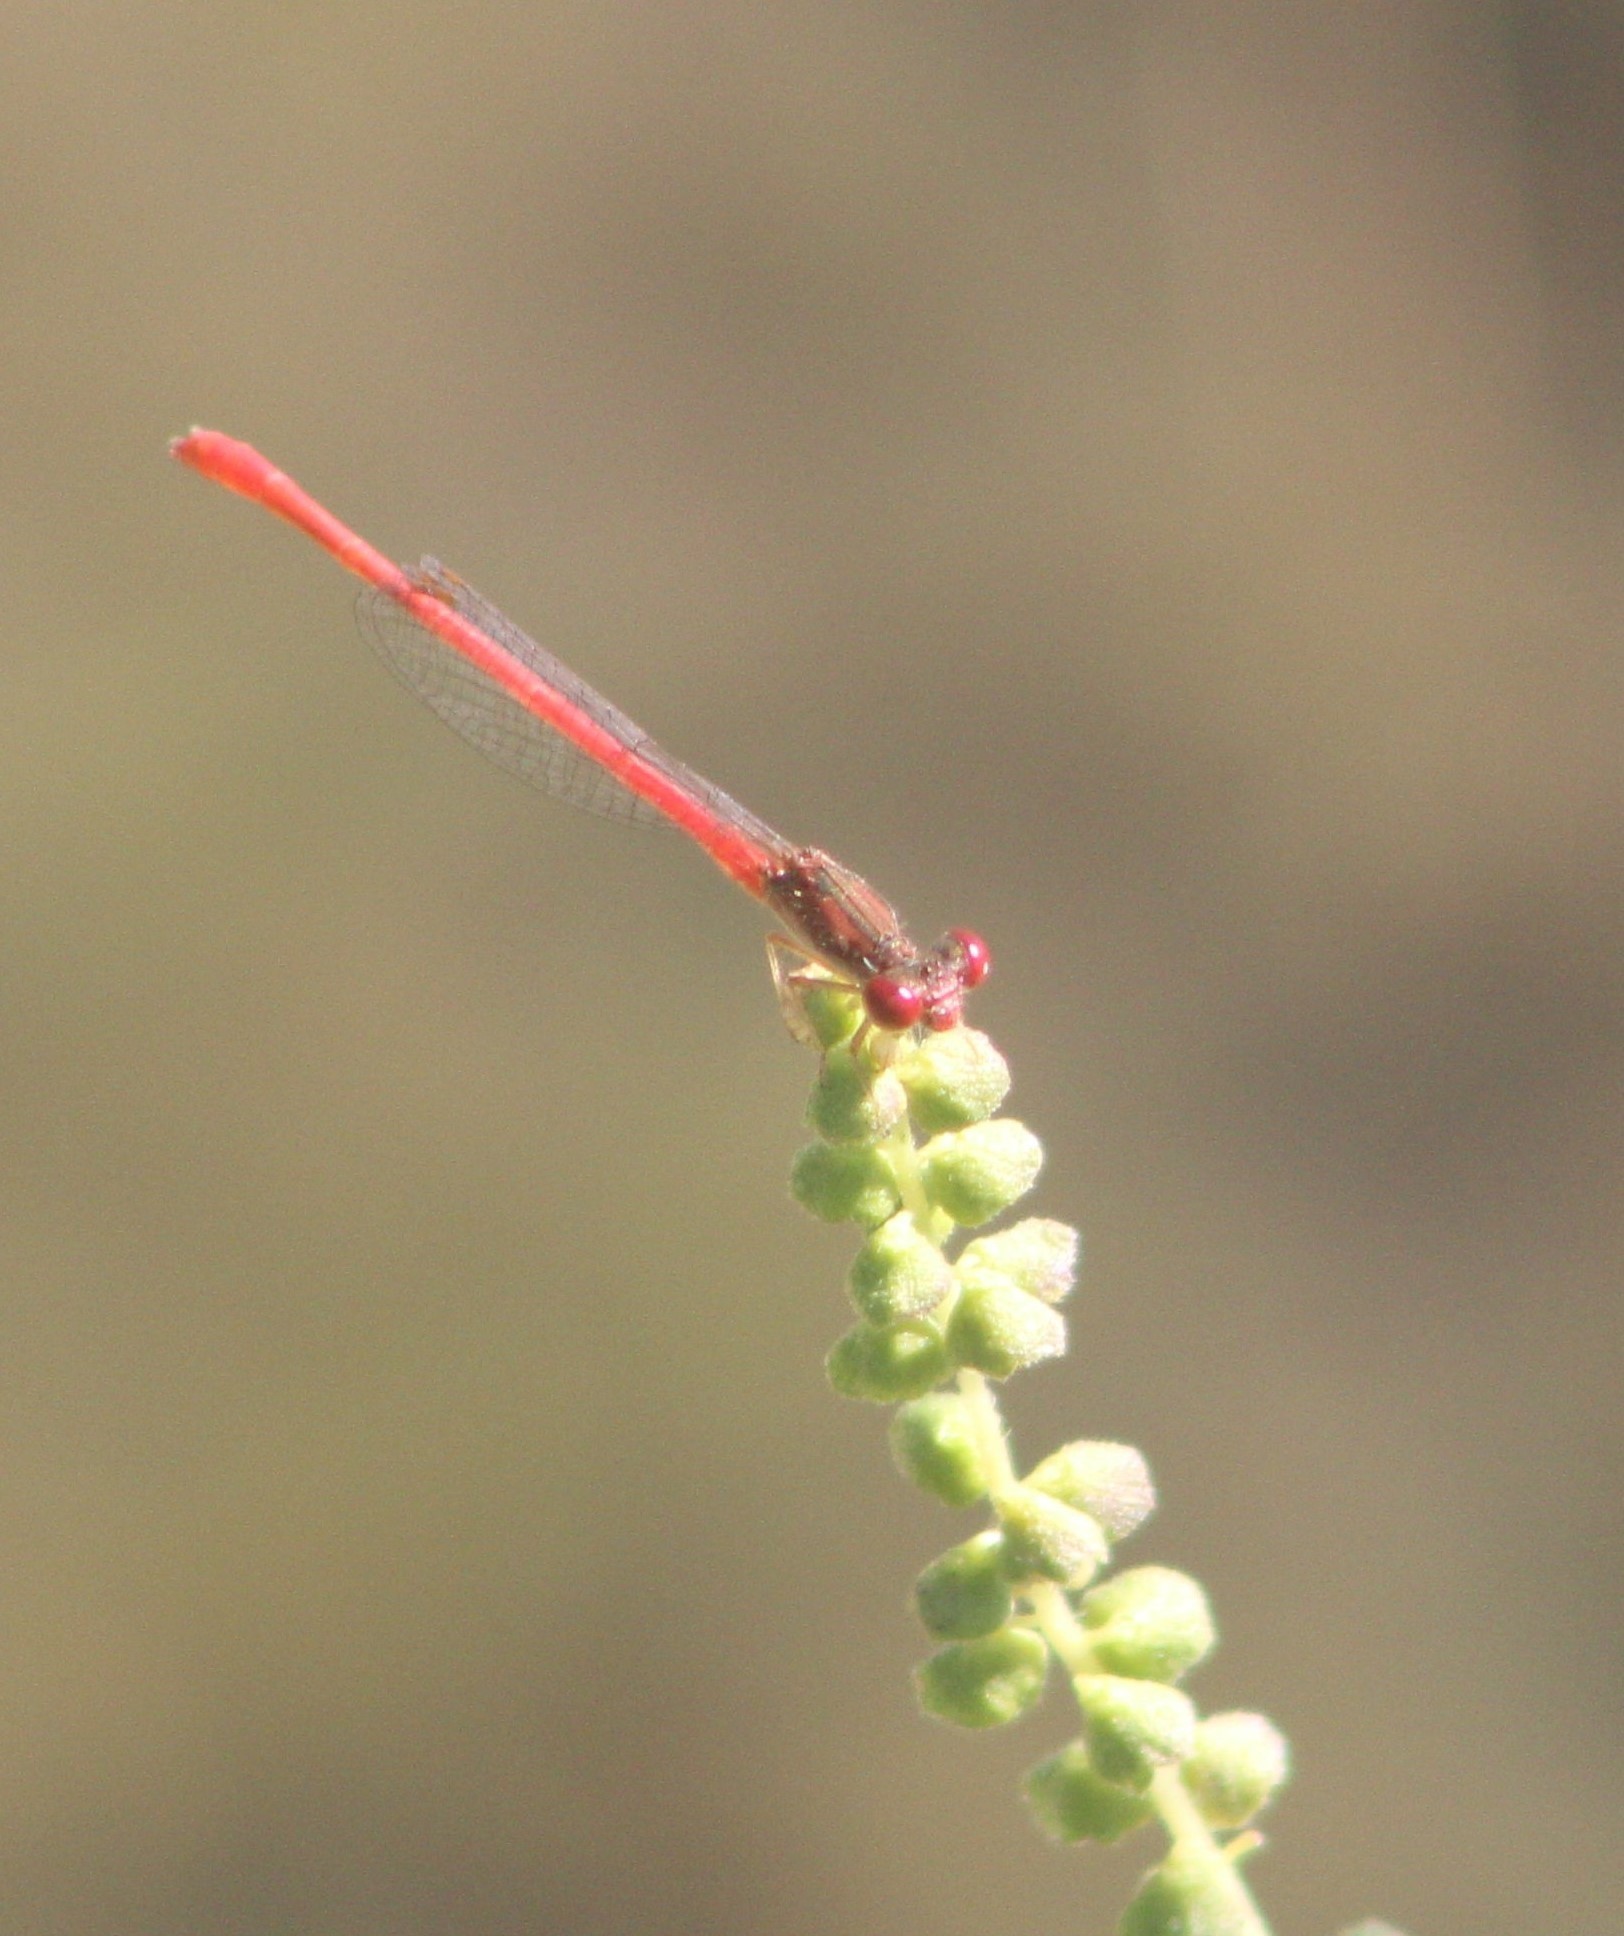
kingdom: Animalia
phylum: Arthropoda
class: Insecta
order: Odonata
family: Coenagrionidae
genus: Telebasis
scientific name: Telebasis salva
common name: Desert firetail
